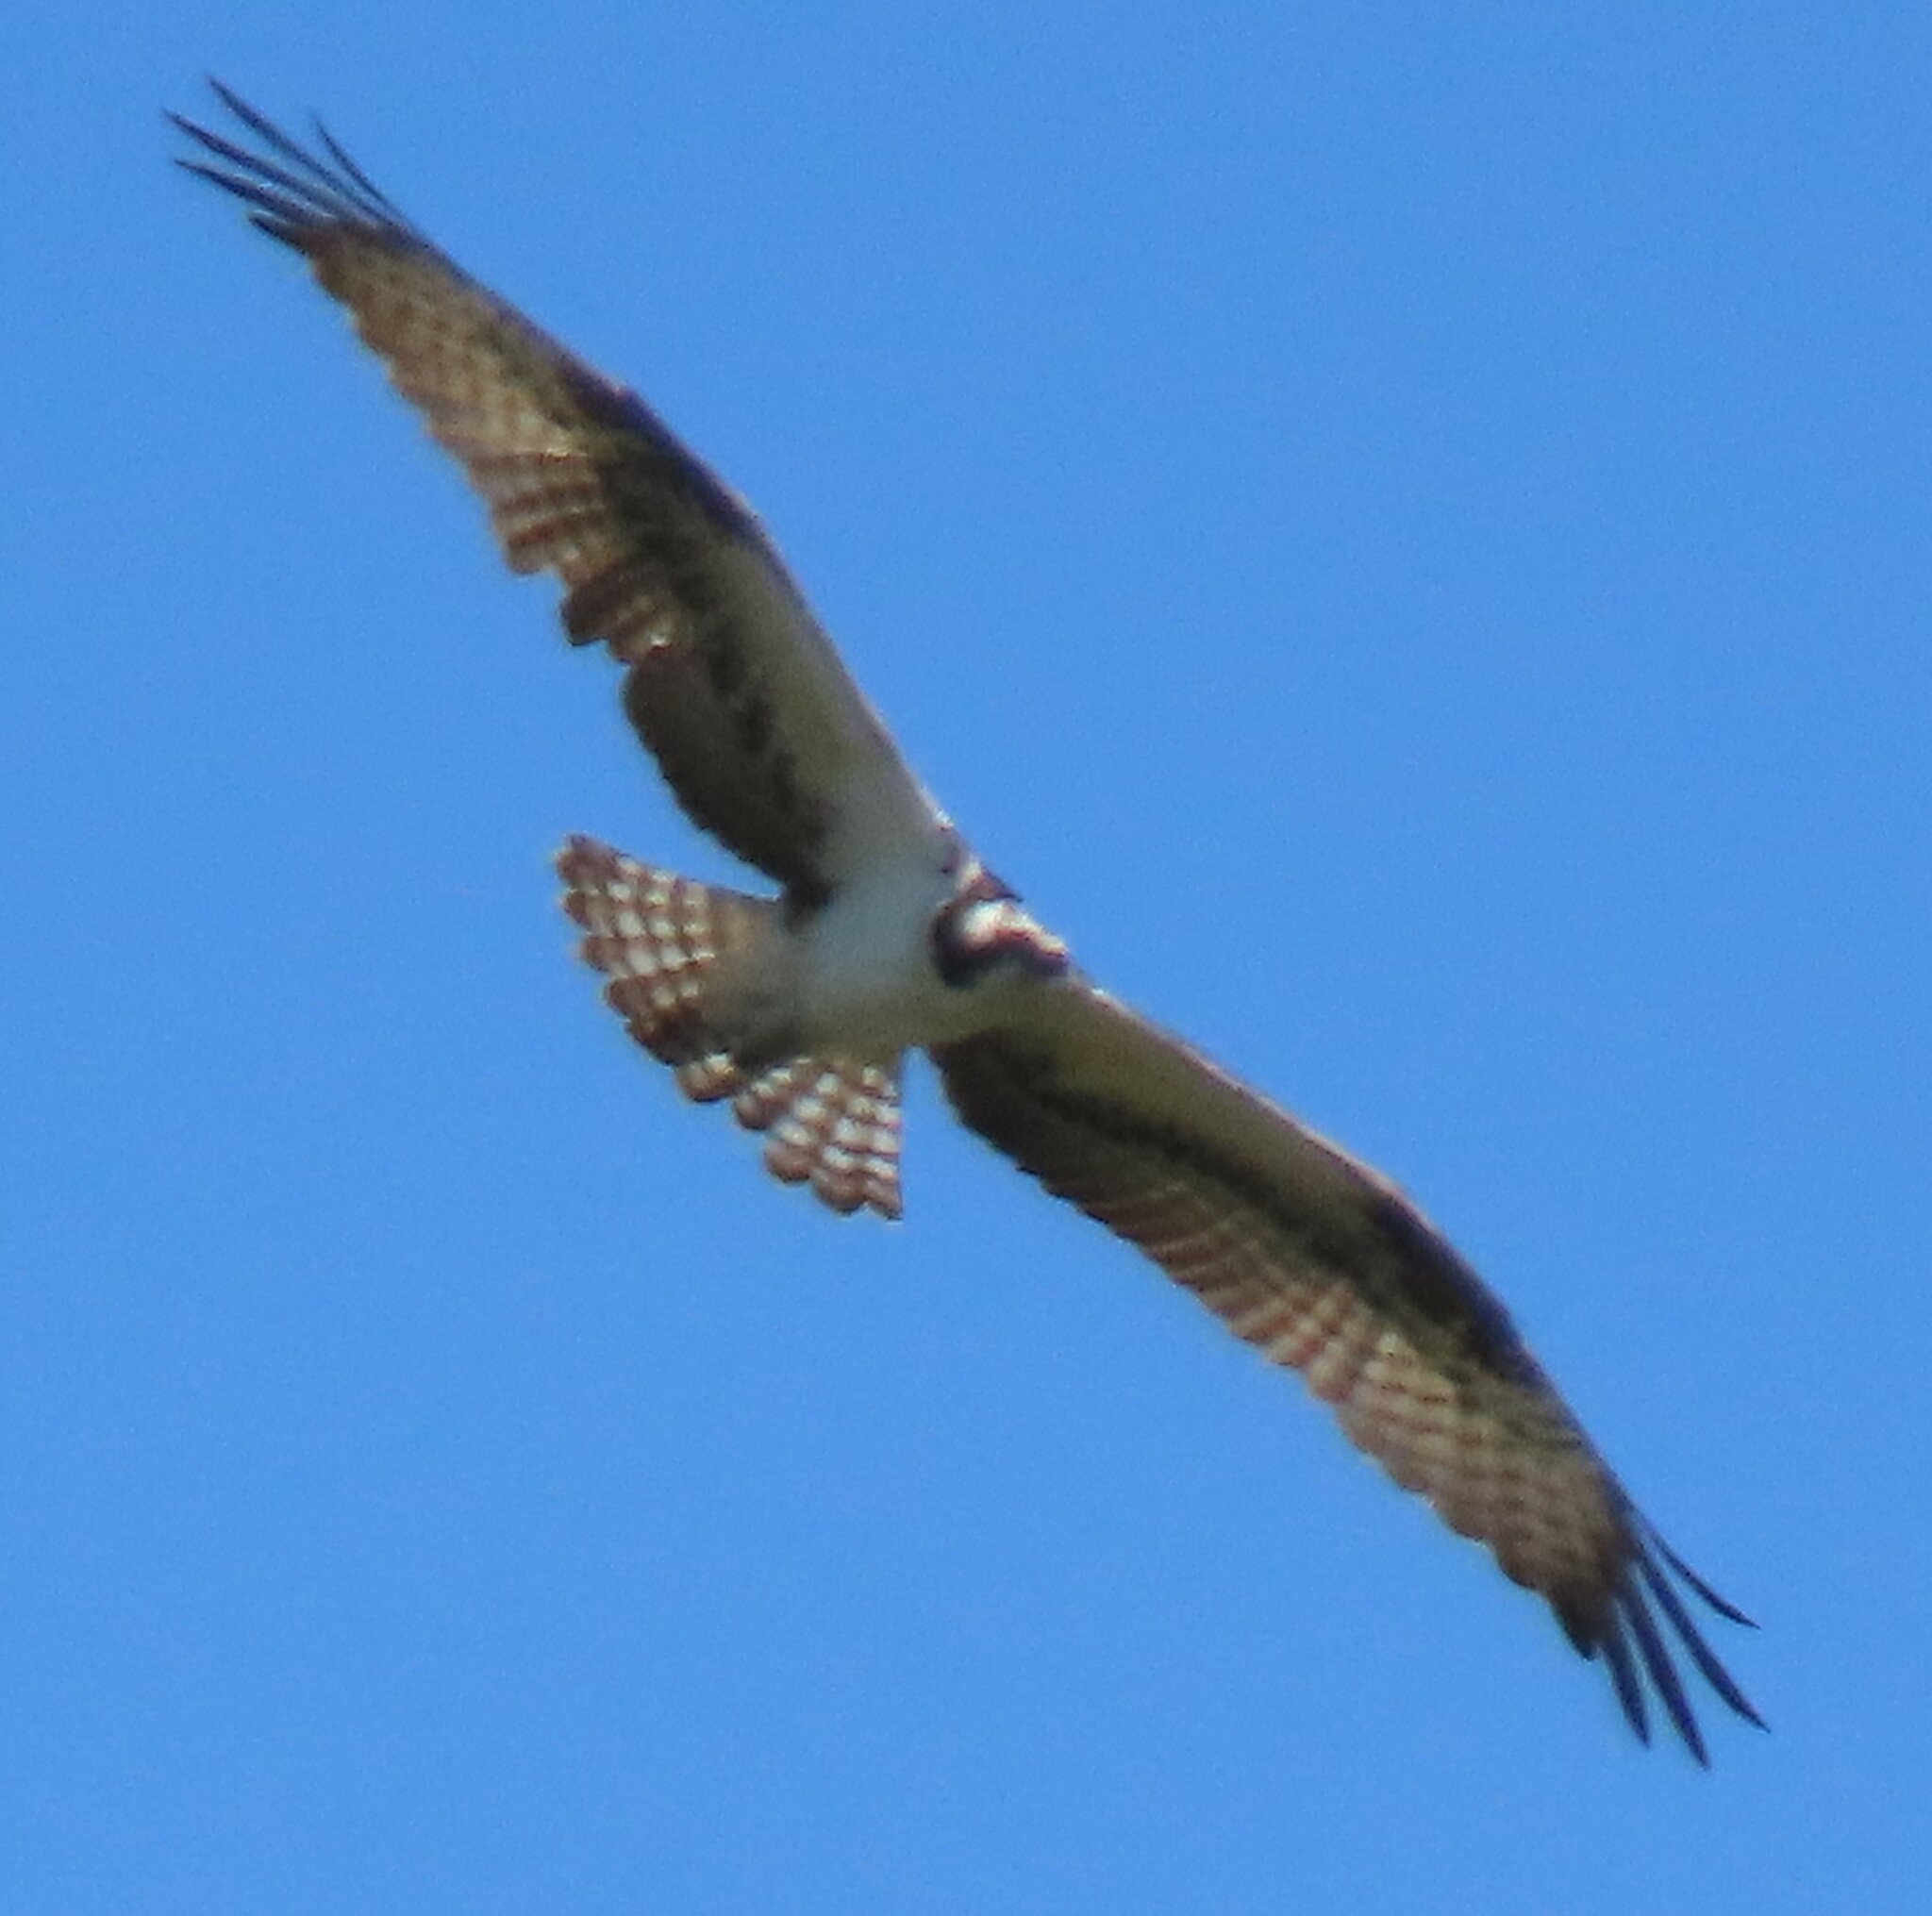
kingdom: Animalia
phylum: Chordata
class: Aves
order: Accipitriformes
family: Pandionidae
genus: Pandion
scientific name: Pandion haliaetus
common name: Osprey
